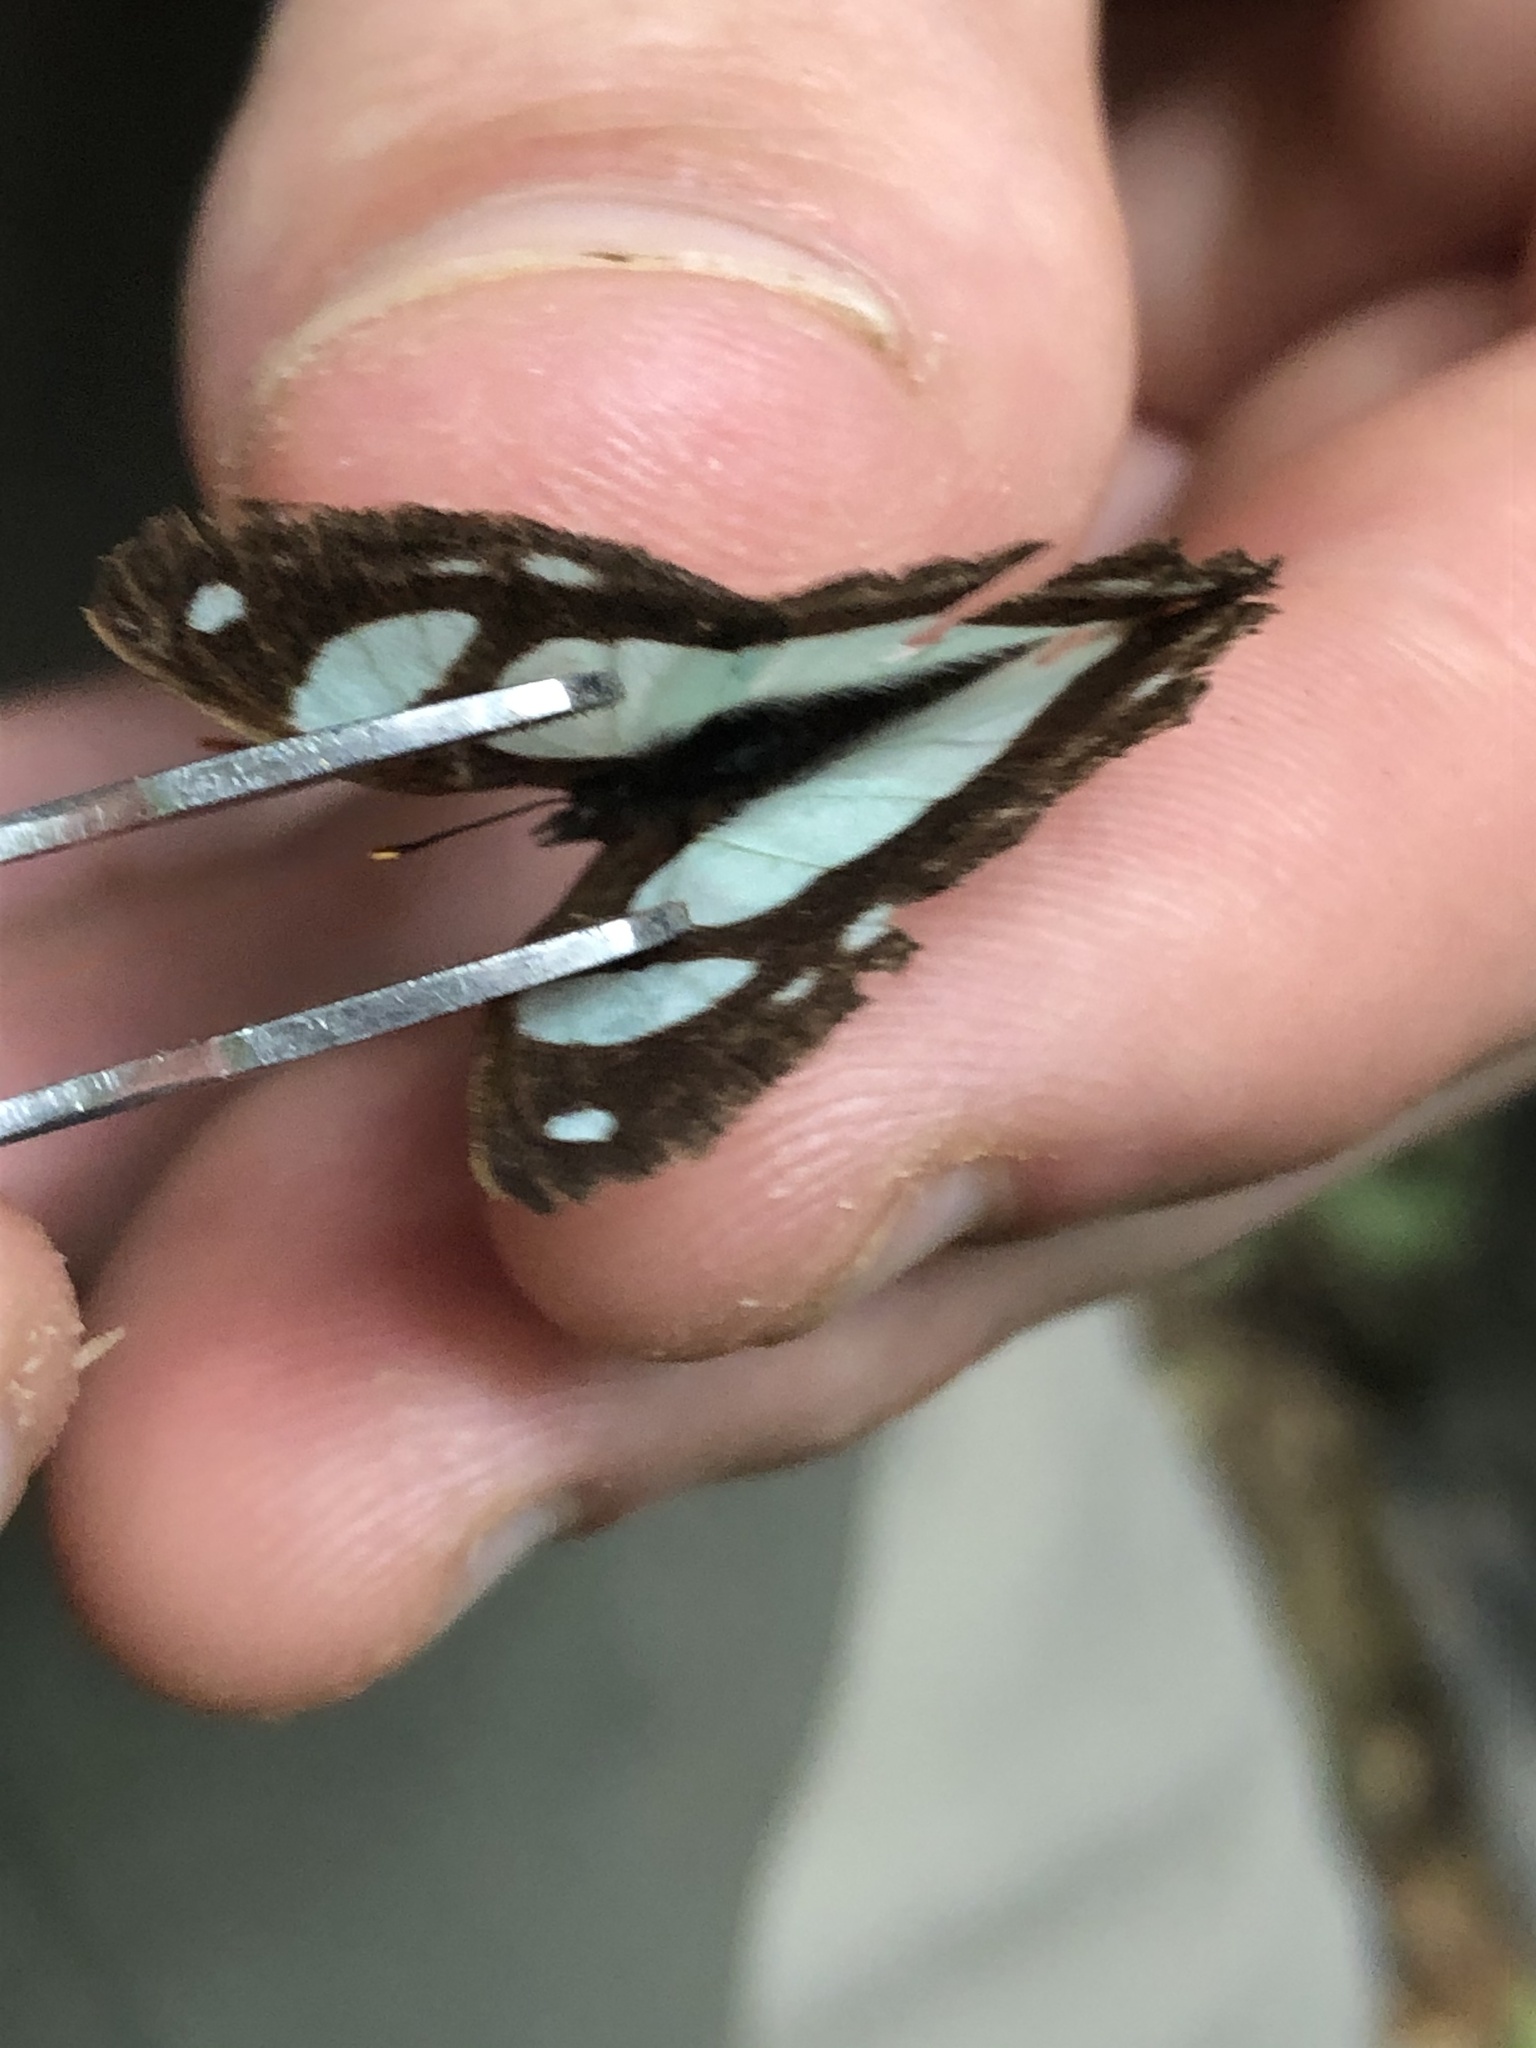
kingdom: Animalia
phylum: Arthropoda
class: Insecta
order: Lepidoptera
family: Nymphalidae
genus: Pyrrhogyra
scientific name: Pyrrhogyra otolais
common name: Double-banded banner
